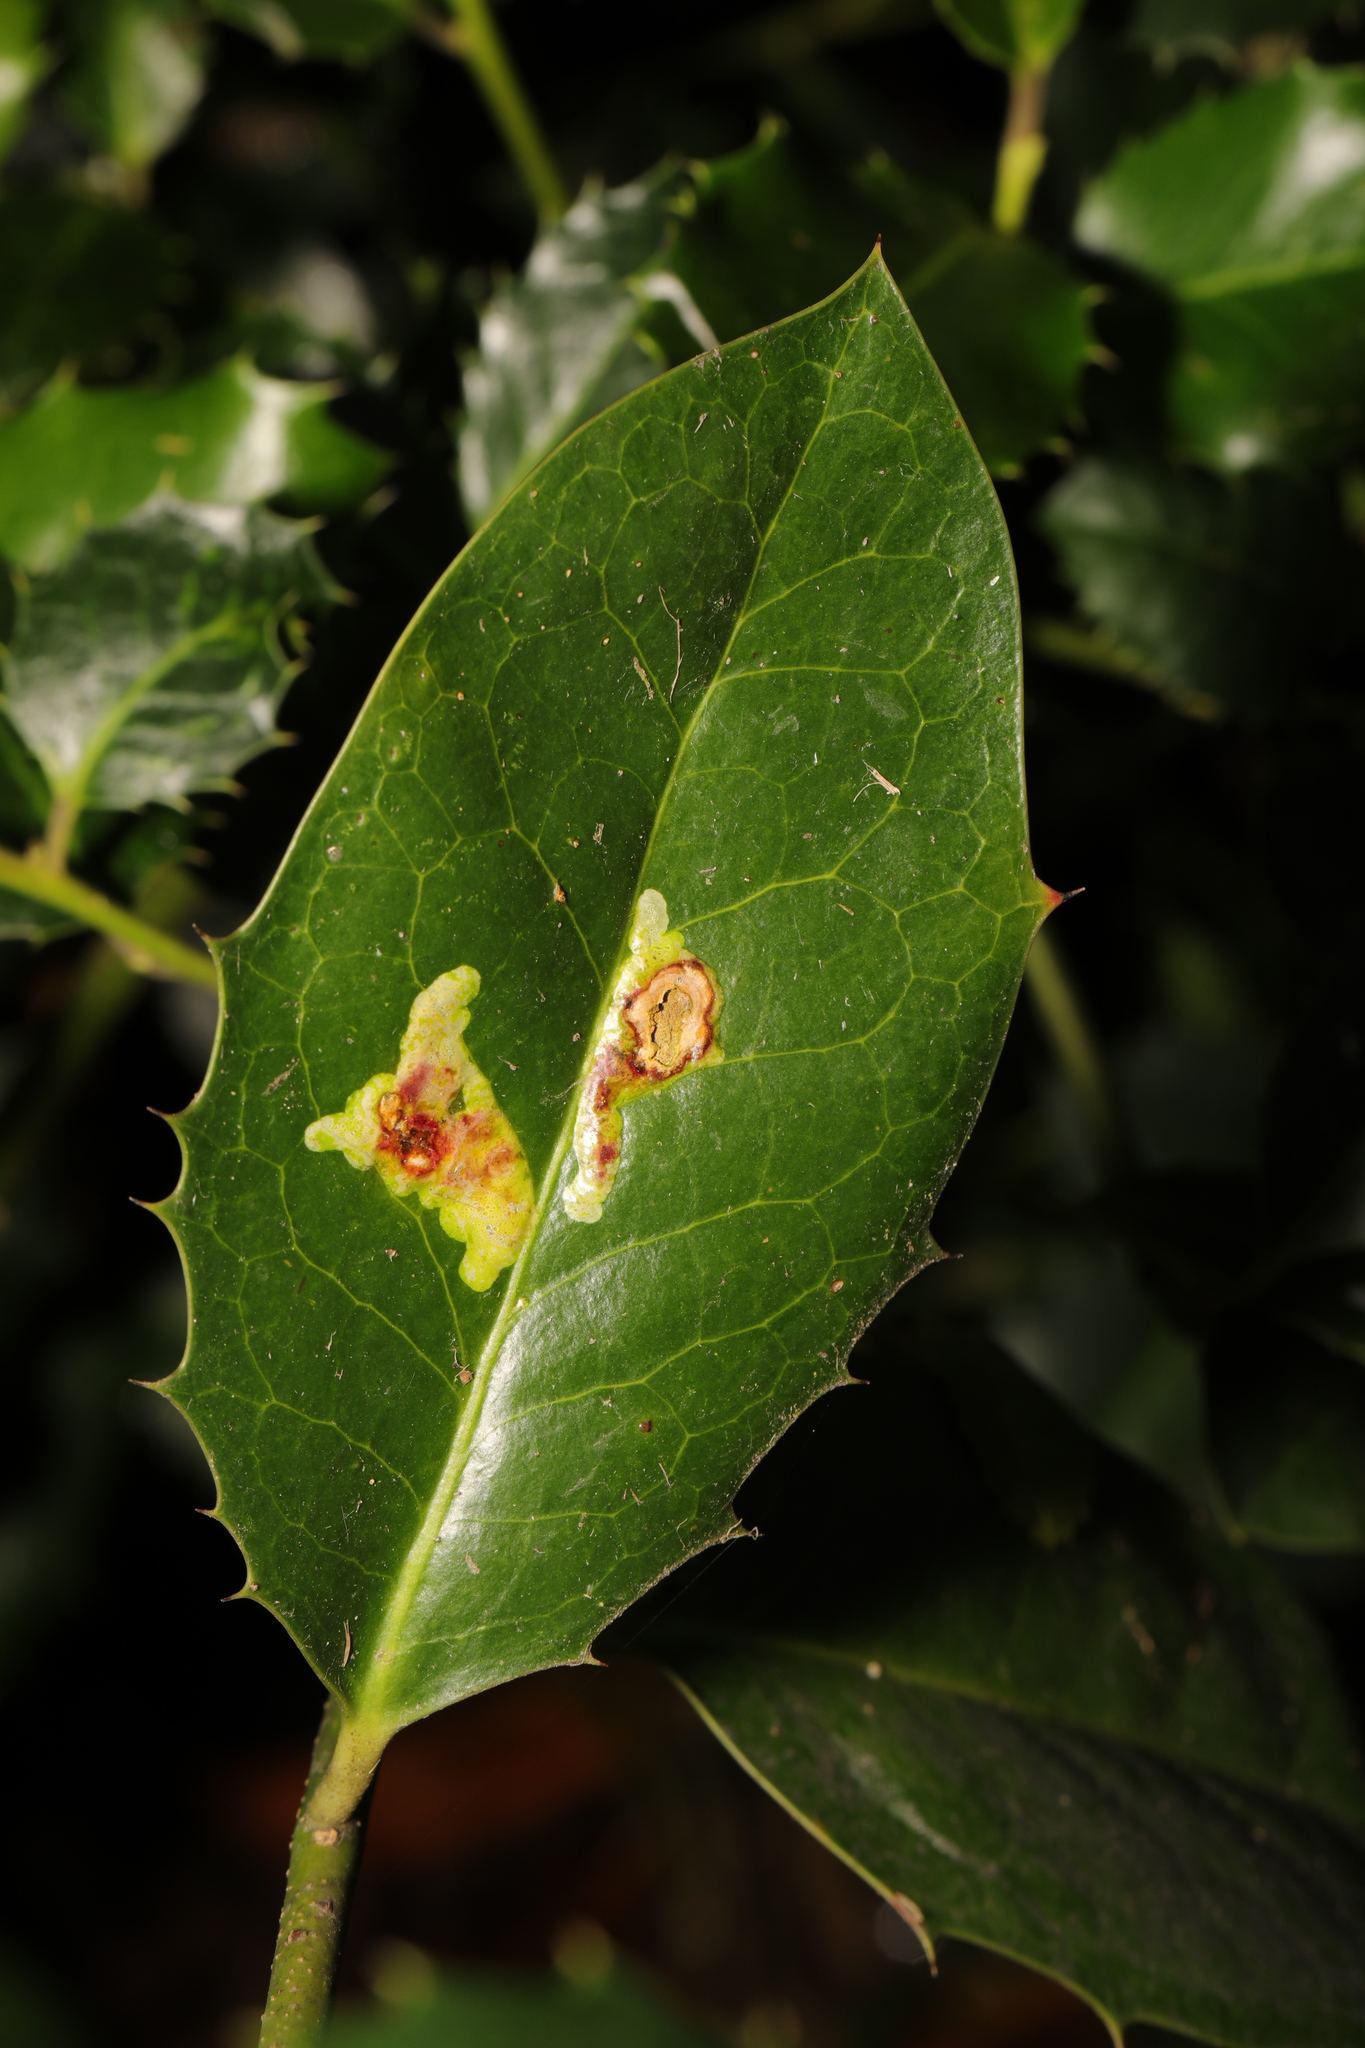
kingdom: Animalia
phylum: Arthropoda
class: Insecta
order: Diptera
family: Agromyzidae
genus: Phytomyza
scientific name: Phytomyza ilicis
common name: Holly leafminer
